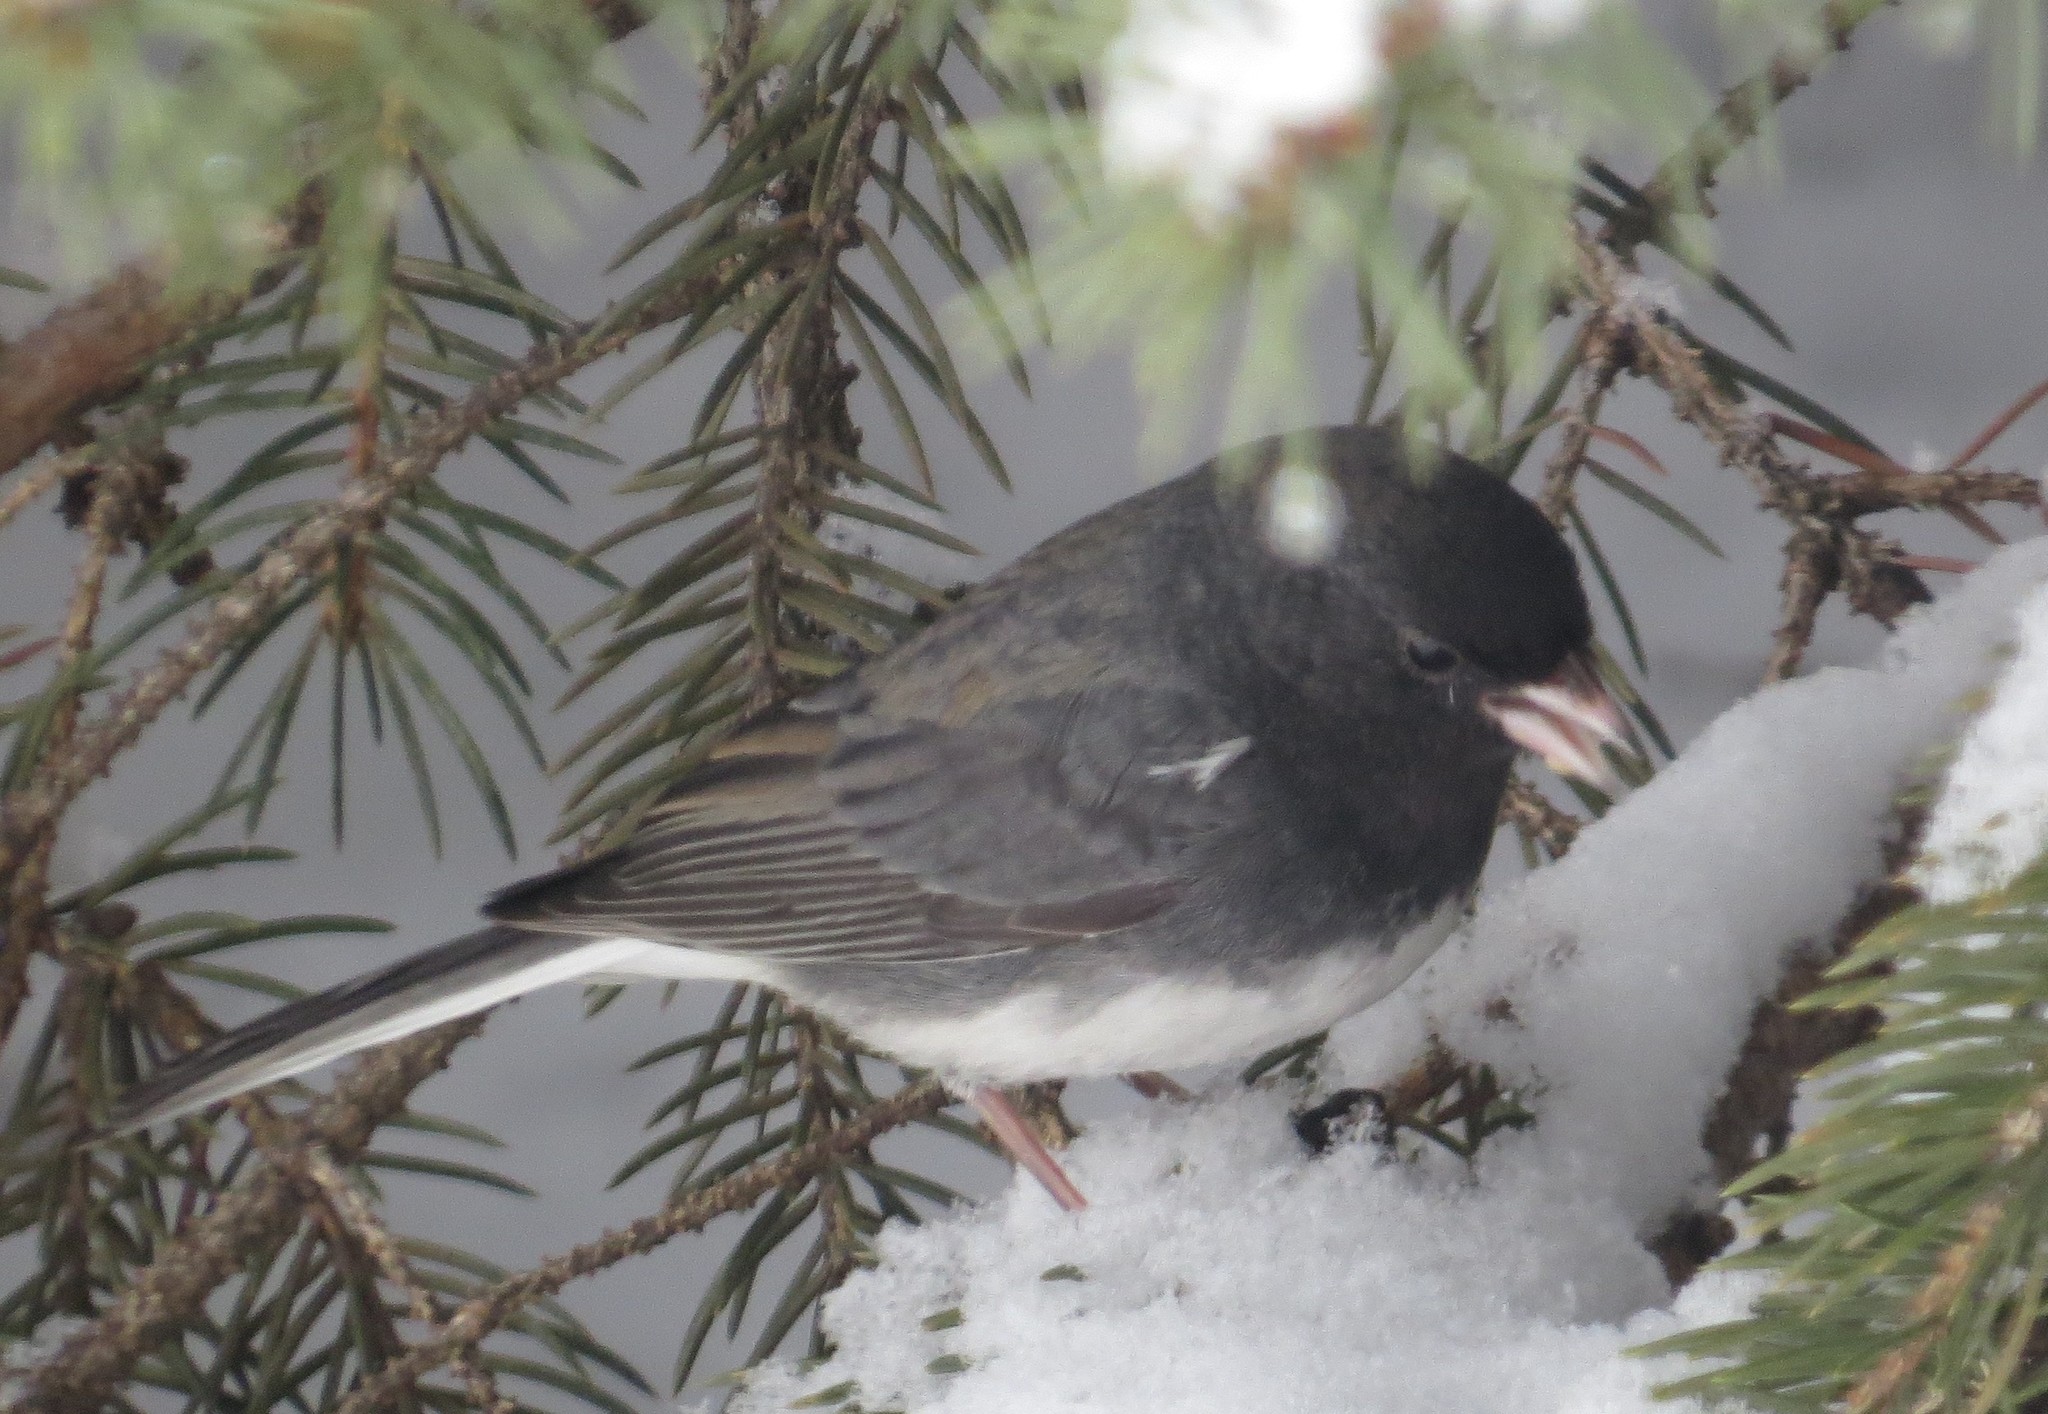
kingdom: Animalia
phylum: Chordata
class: Aves
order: Passeriformes
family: Passerellidae
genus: Junco
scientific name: Junco hyemalis
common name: Dark-eyed junco
